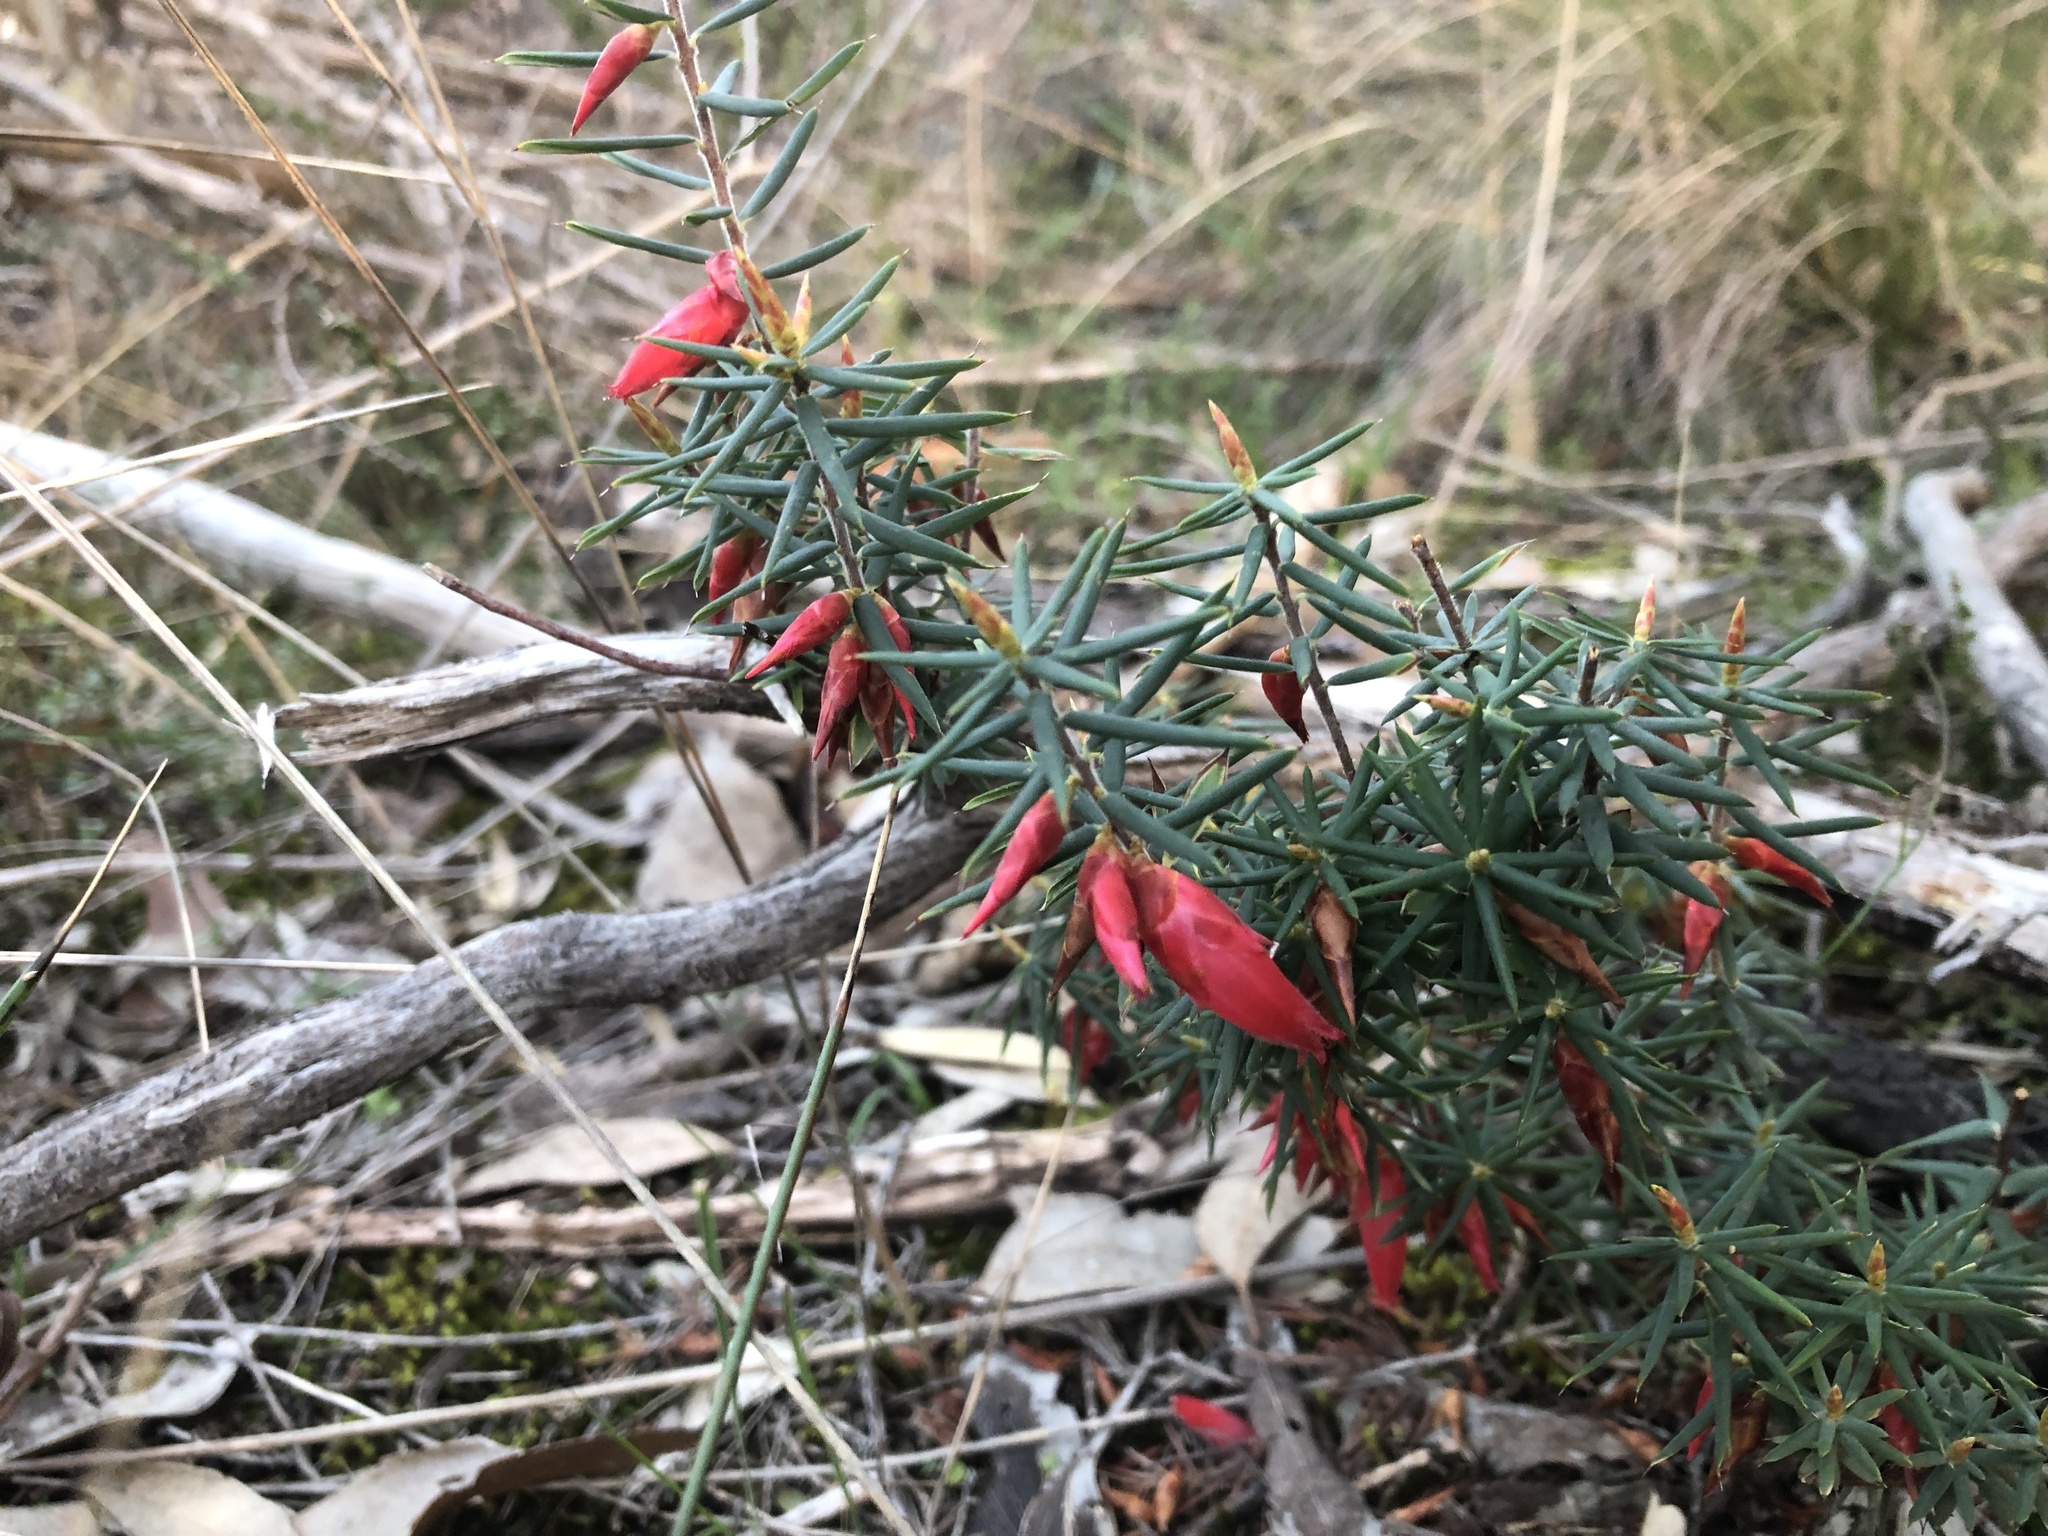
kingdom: Plantae
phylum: Tracheophyta
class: Magnoliopsida
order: Ericales
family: Ericaceae
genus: Stenanthera
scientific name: Stenanthera conostephioides
